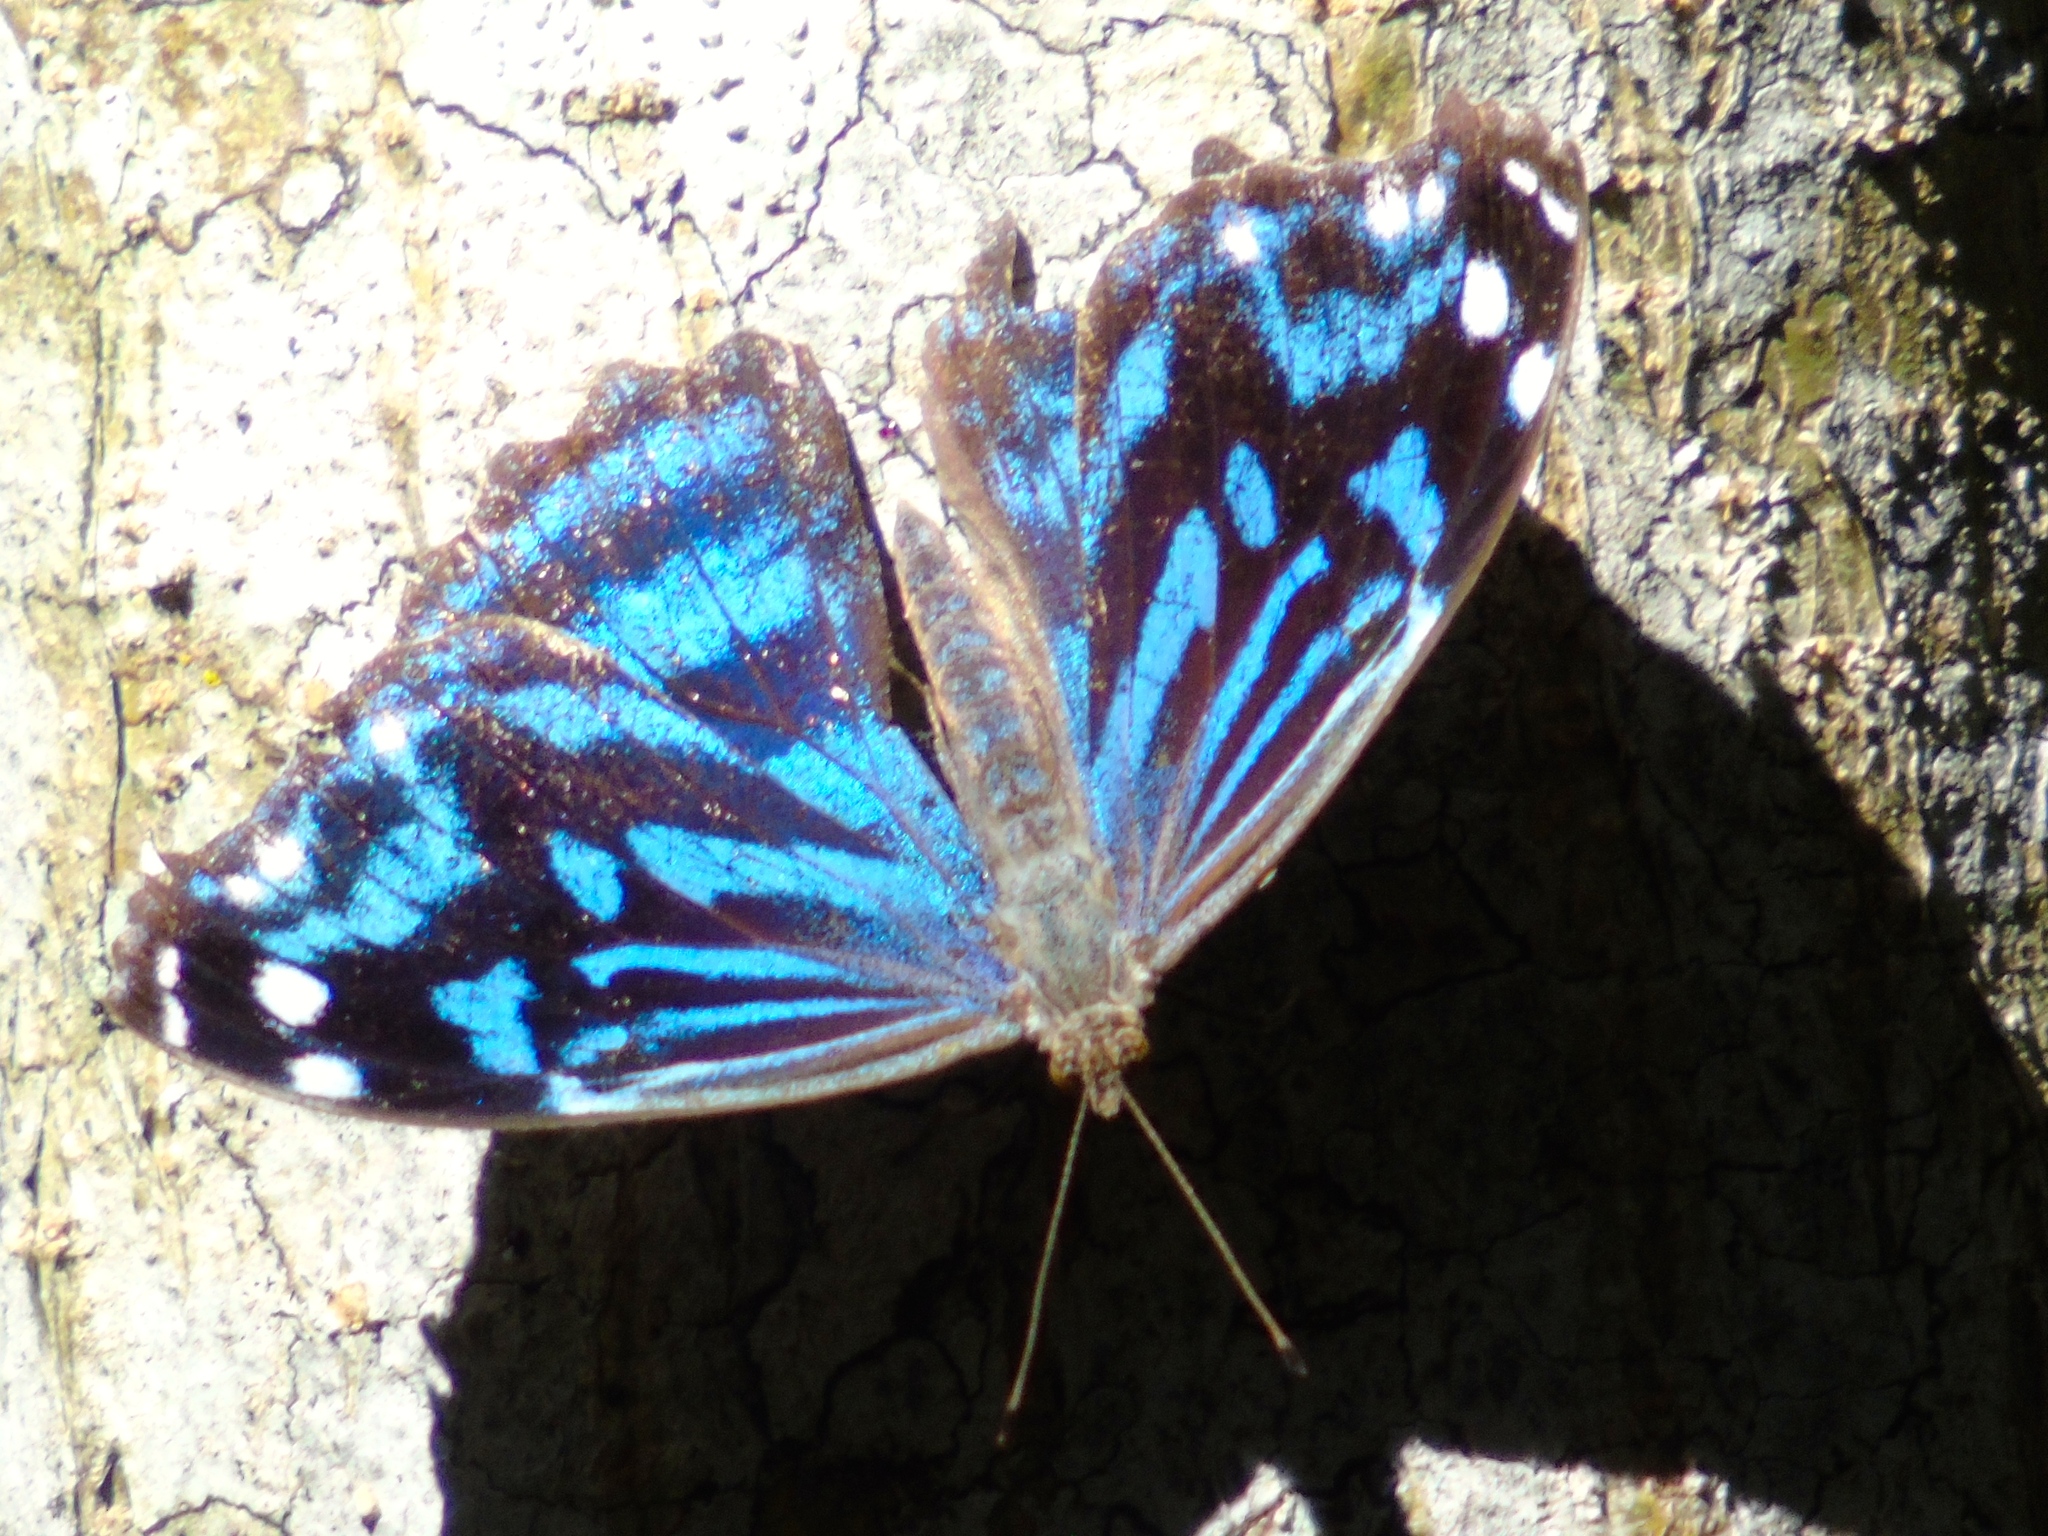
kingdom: Animalia
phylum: Arthropoda
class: Insecta
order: Lepidoptera
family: Nymphalidae
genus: Myscelia
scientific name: Myscelia ethusa
